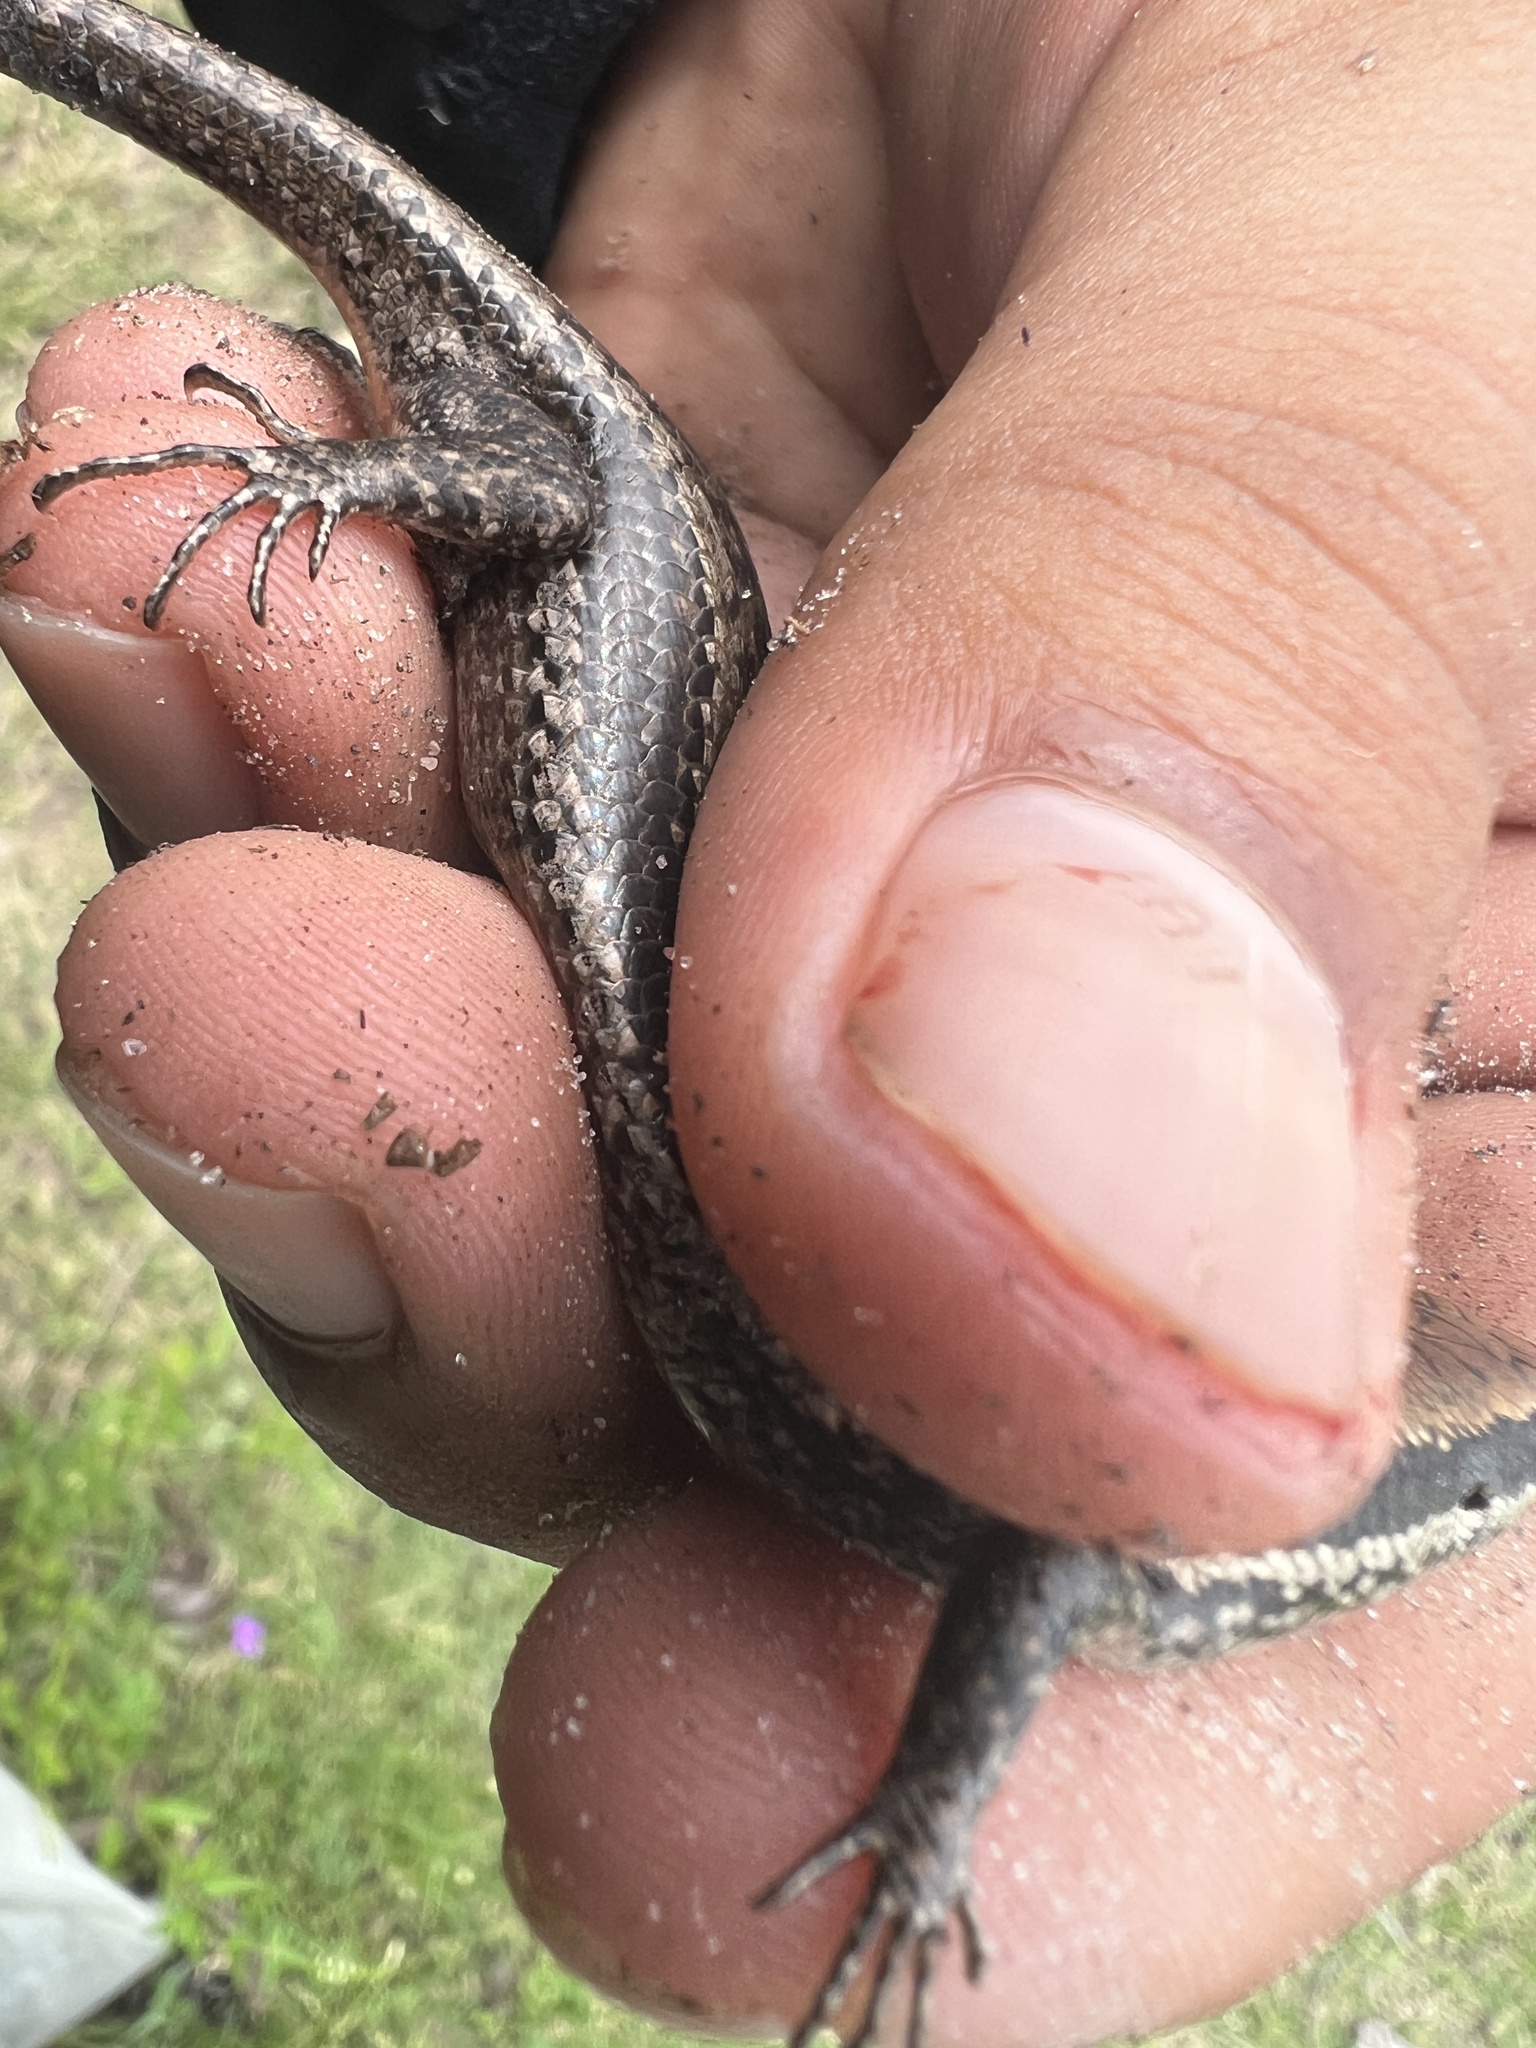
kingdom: Animalia
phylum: Chordata
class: Squamata
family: Scincidae
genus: Notomabuya
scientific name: Notomabuya frenata
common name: Cope's mabuya
